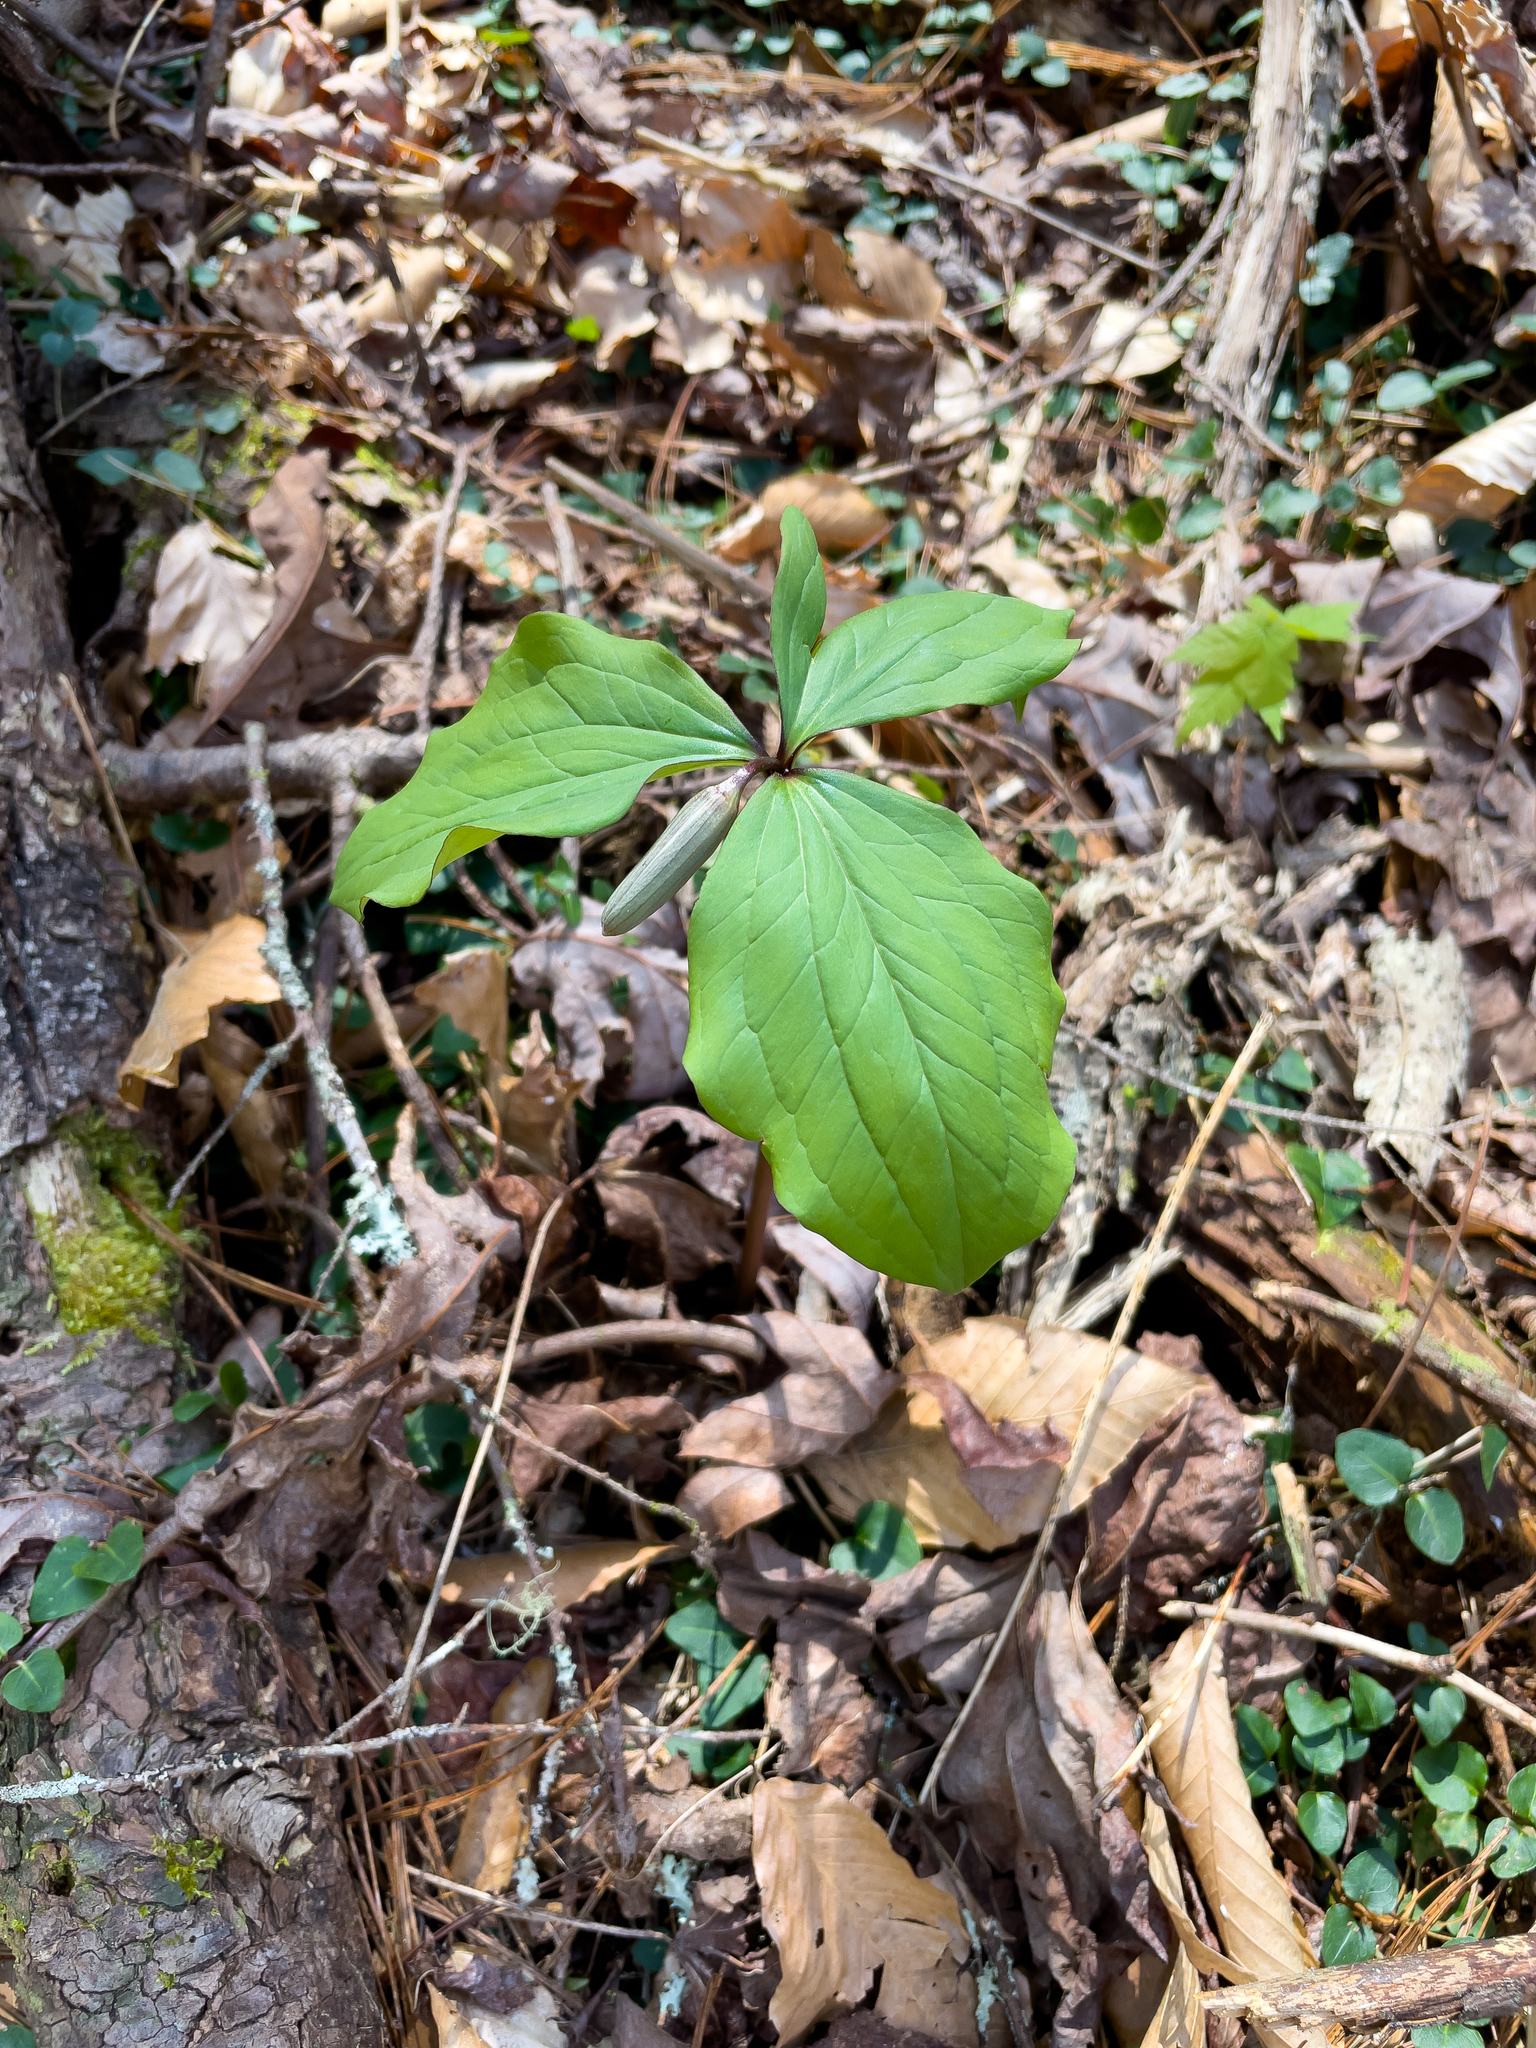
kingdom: Plantae
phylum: Tracheophyta
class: Liliopsida
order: Liliales
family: Melanthiaceae
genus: Trillium
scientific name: Trillium catesbaei
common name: Bashful trillium
